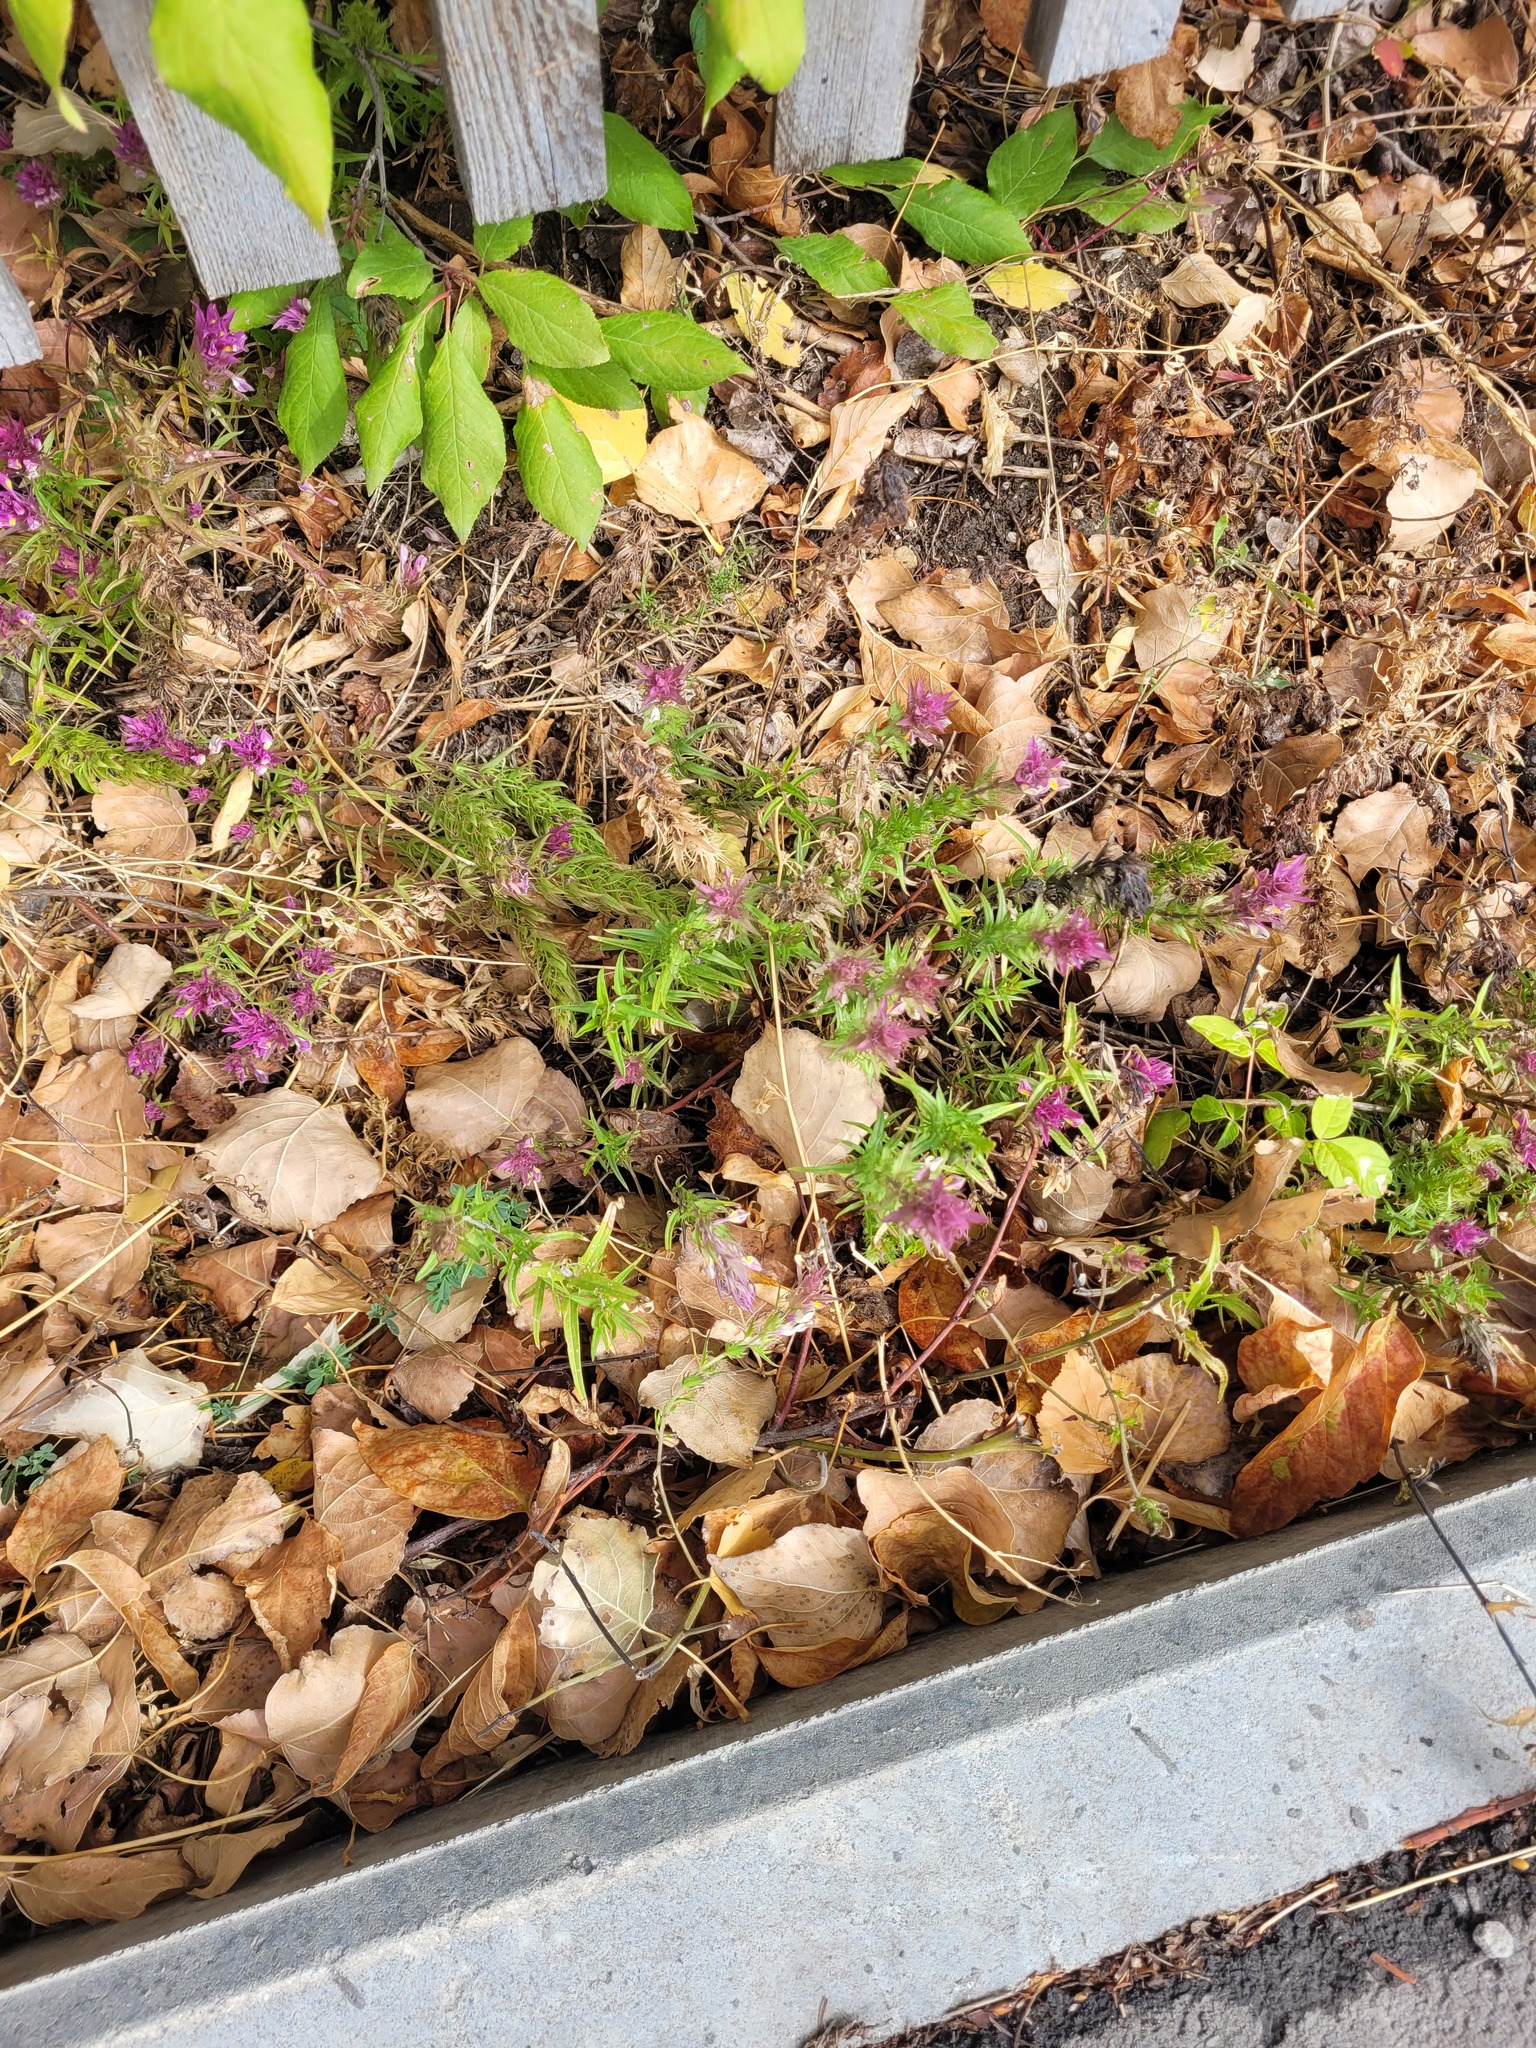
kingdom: Plantae
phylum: Tracheophyta
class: Magnoliopsida
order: Lamiales
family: Orobanchaceae
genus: Melampyrum
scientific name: Melampyrum arvense
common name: Field cow-wheat
